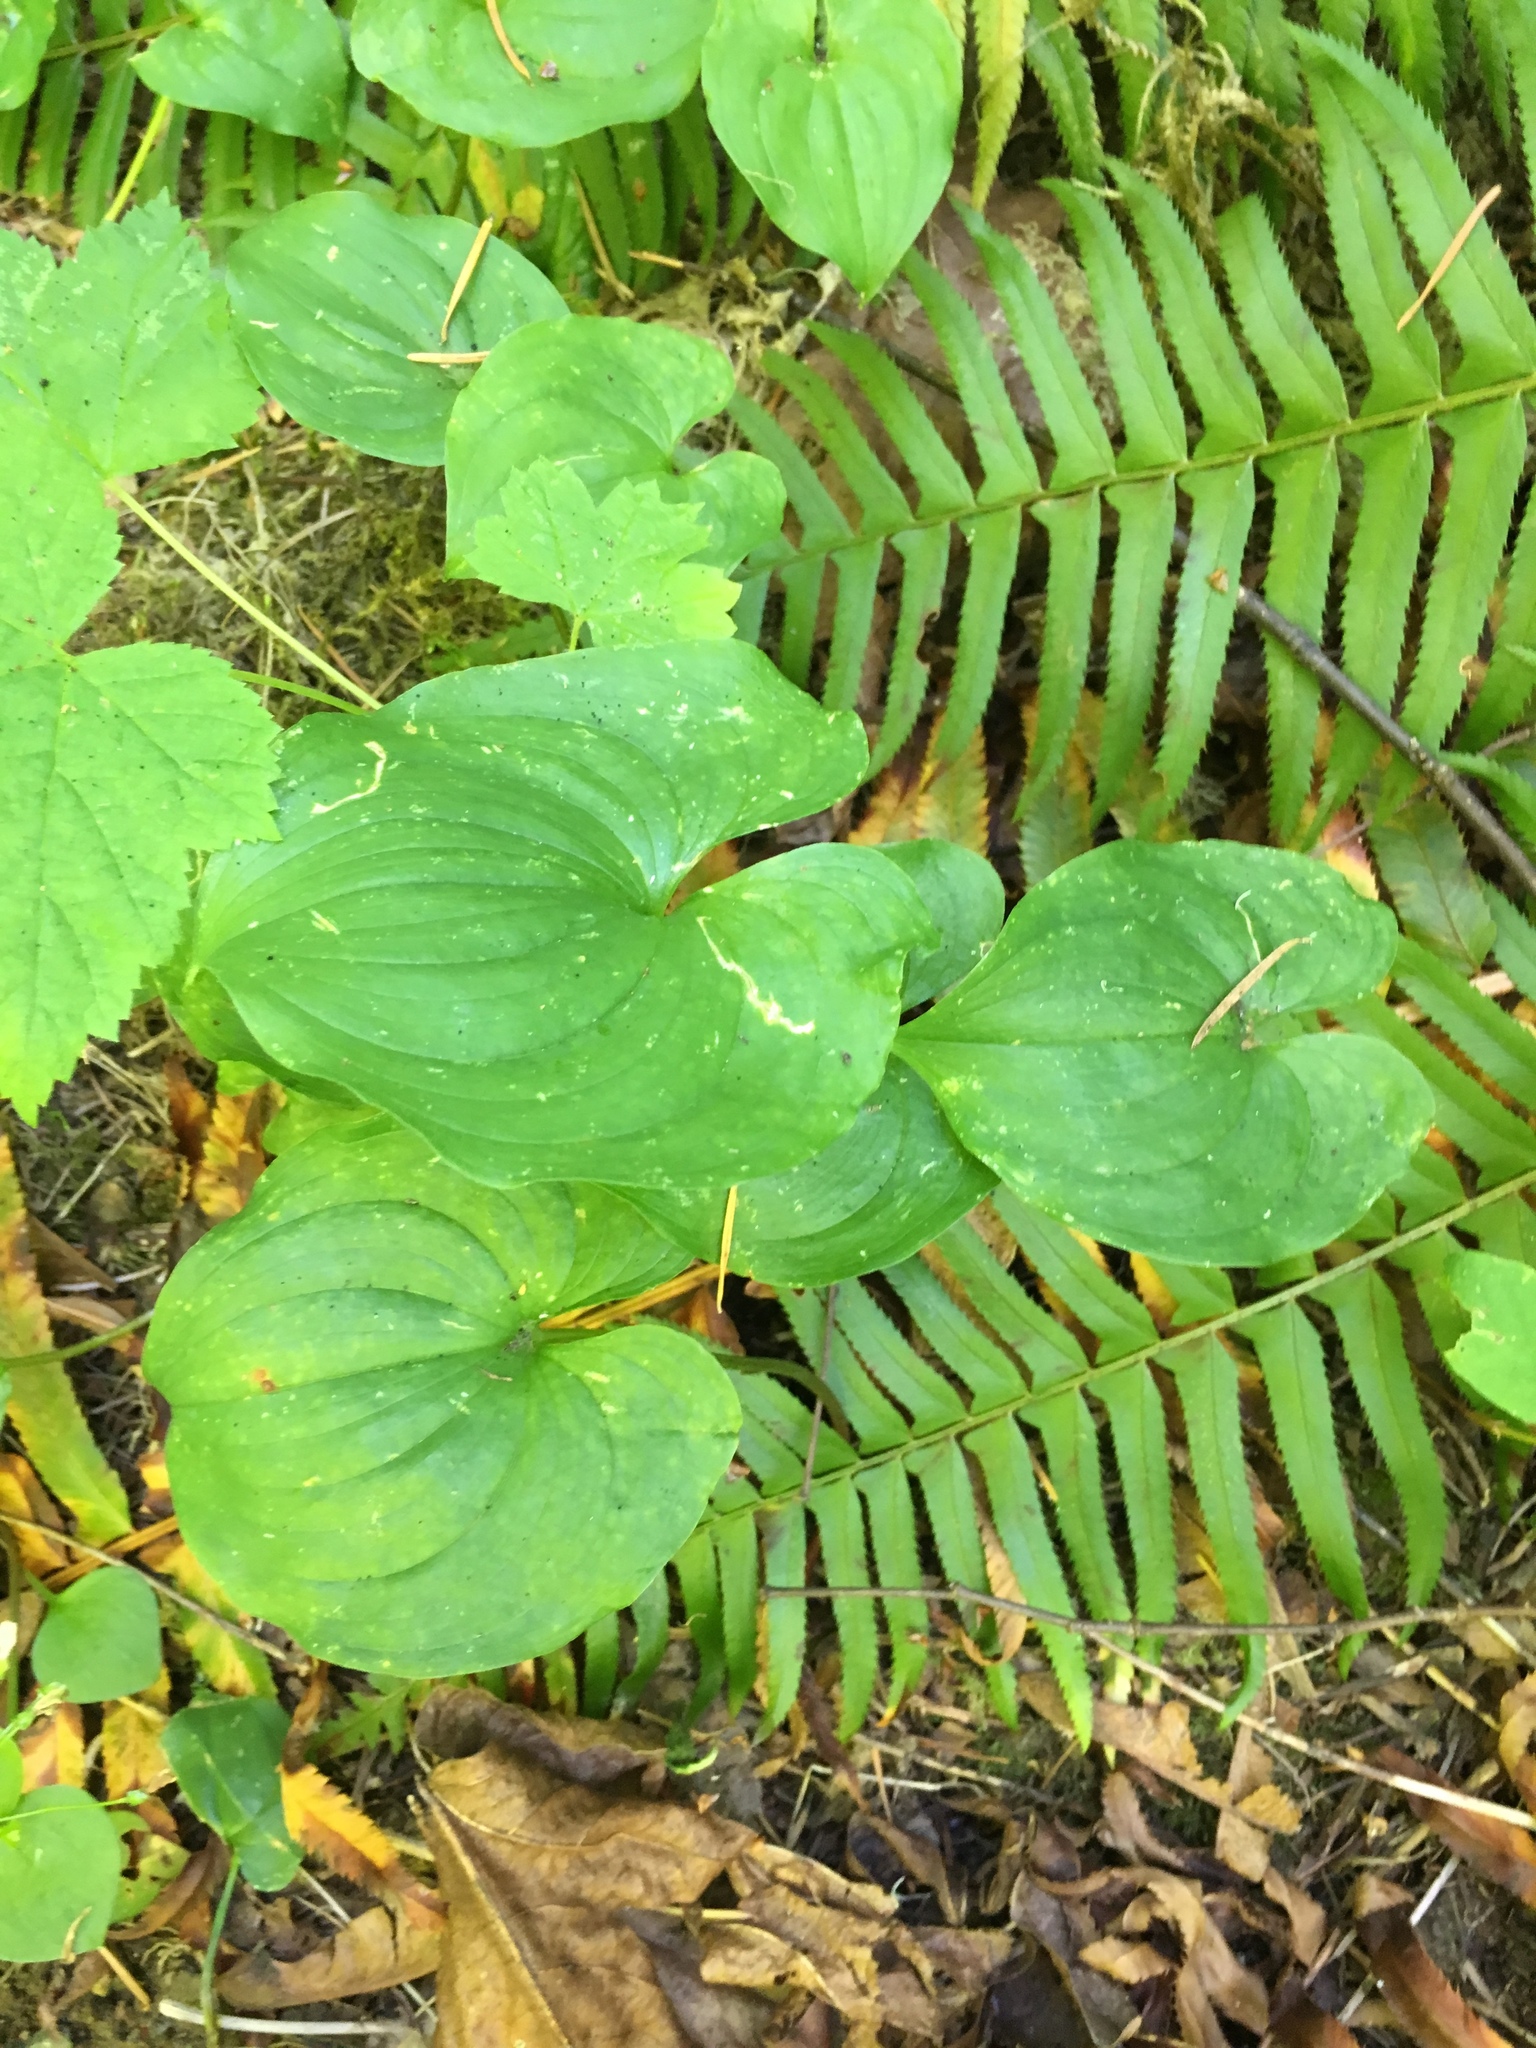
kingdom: Plantae
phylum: Tracheophyta
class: Liliopsida
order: Asparagales
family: Asparagaceae
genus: Maianthemum
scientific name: Maianthemum dilatatum
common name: False lily-of-the-valley
